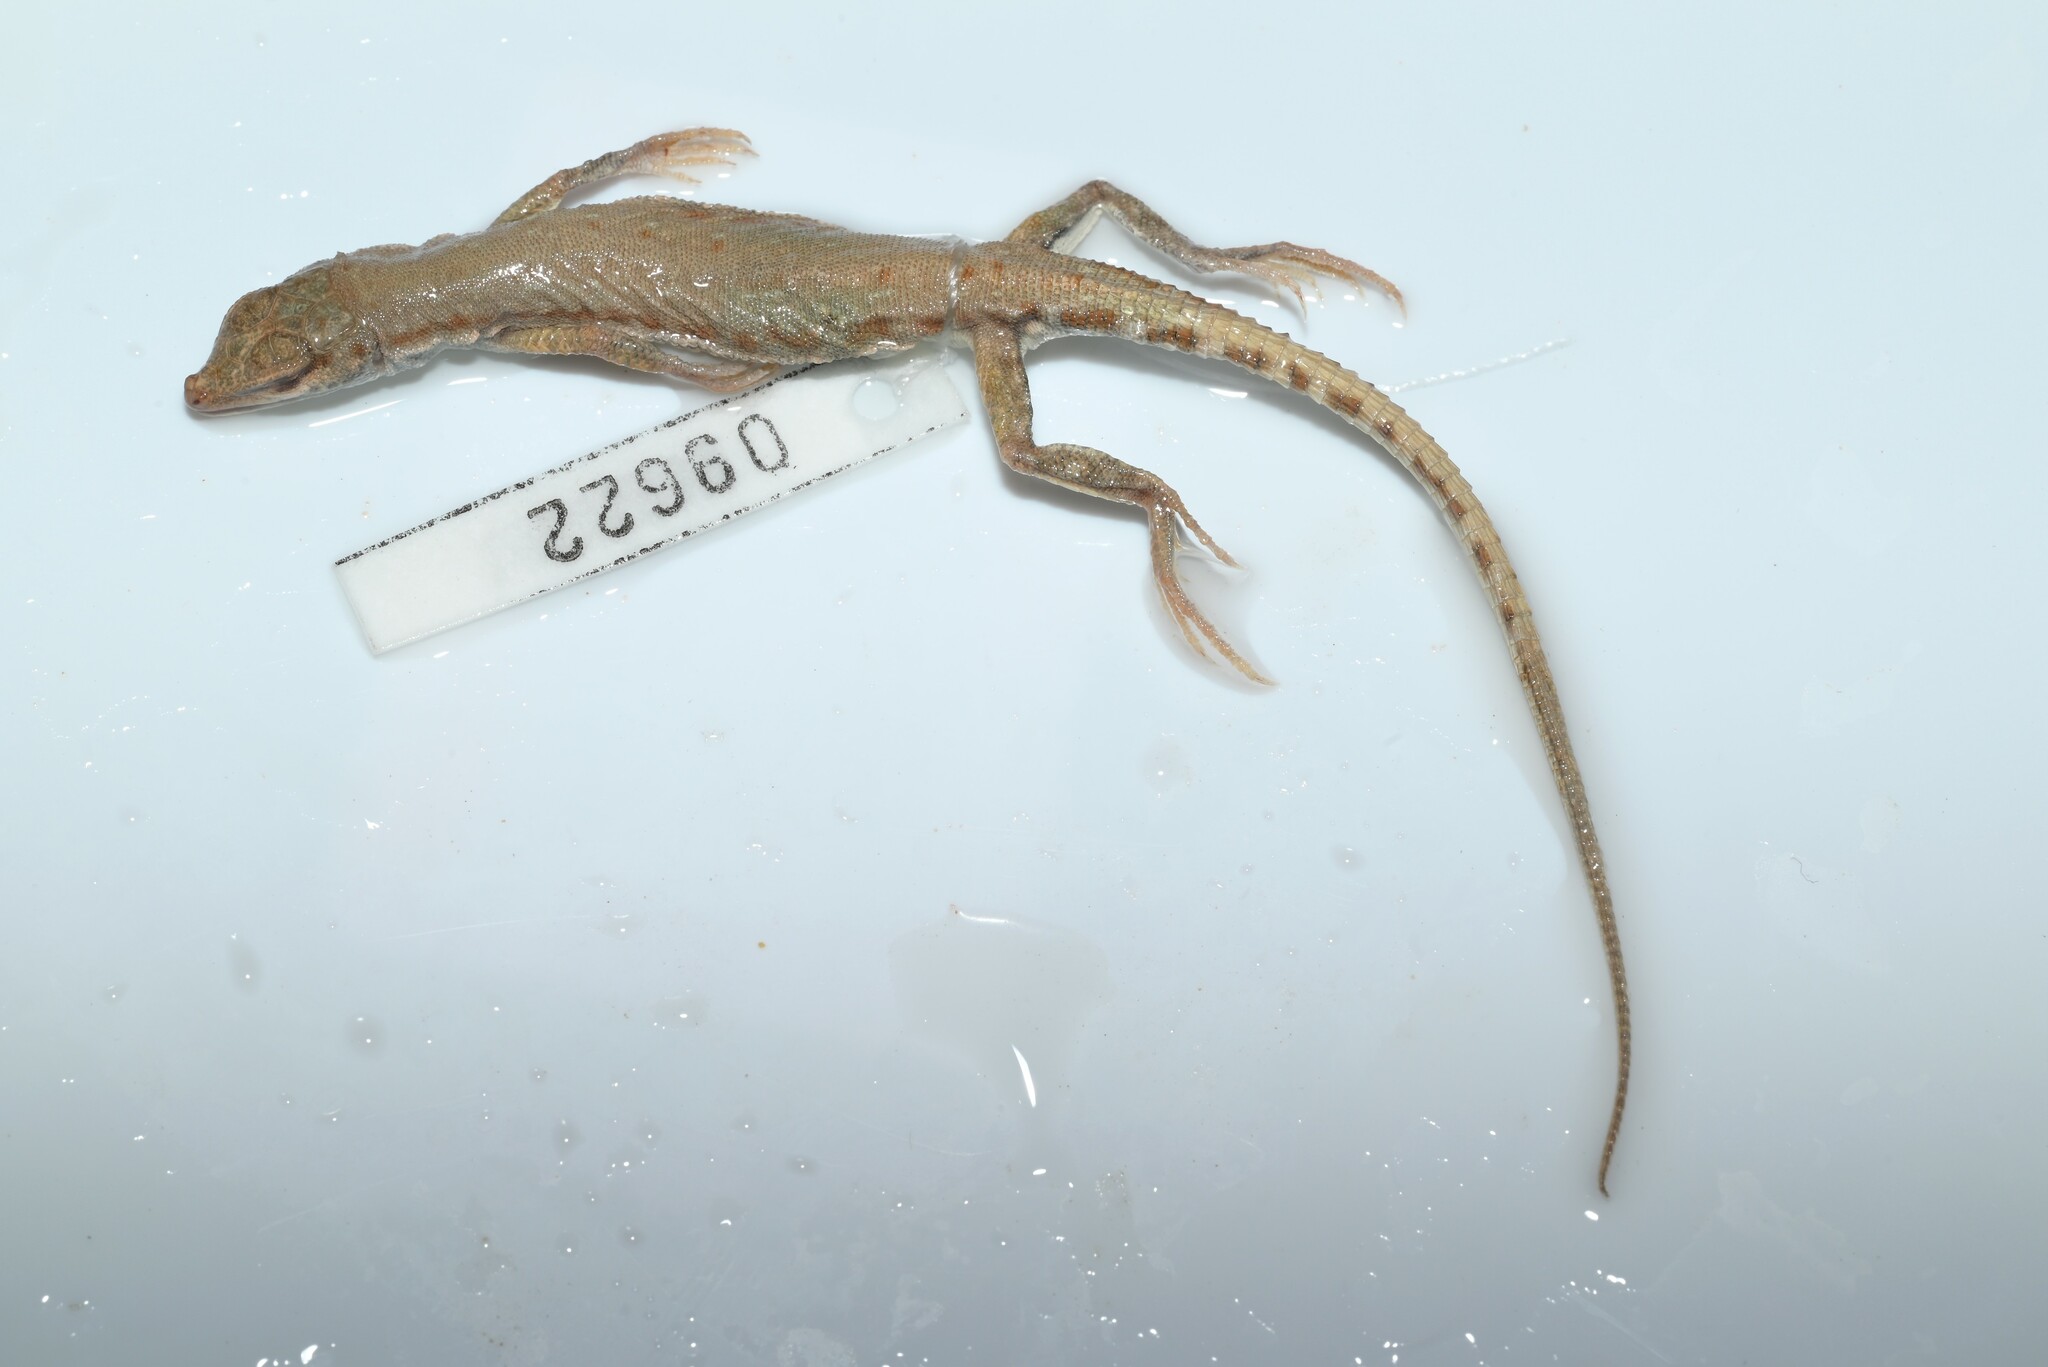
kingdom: Animalia
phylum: Chordata
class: Squamata
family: Lacertidae
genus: Mesalina
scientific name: Mesalina brevirostris
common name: Blanford's short-nosed desert lizard
